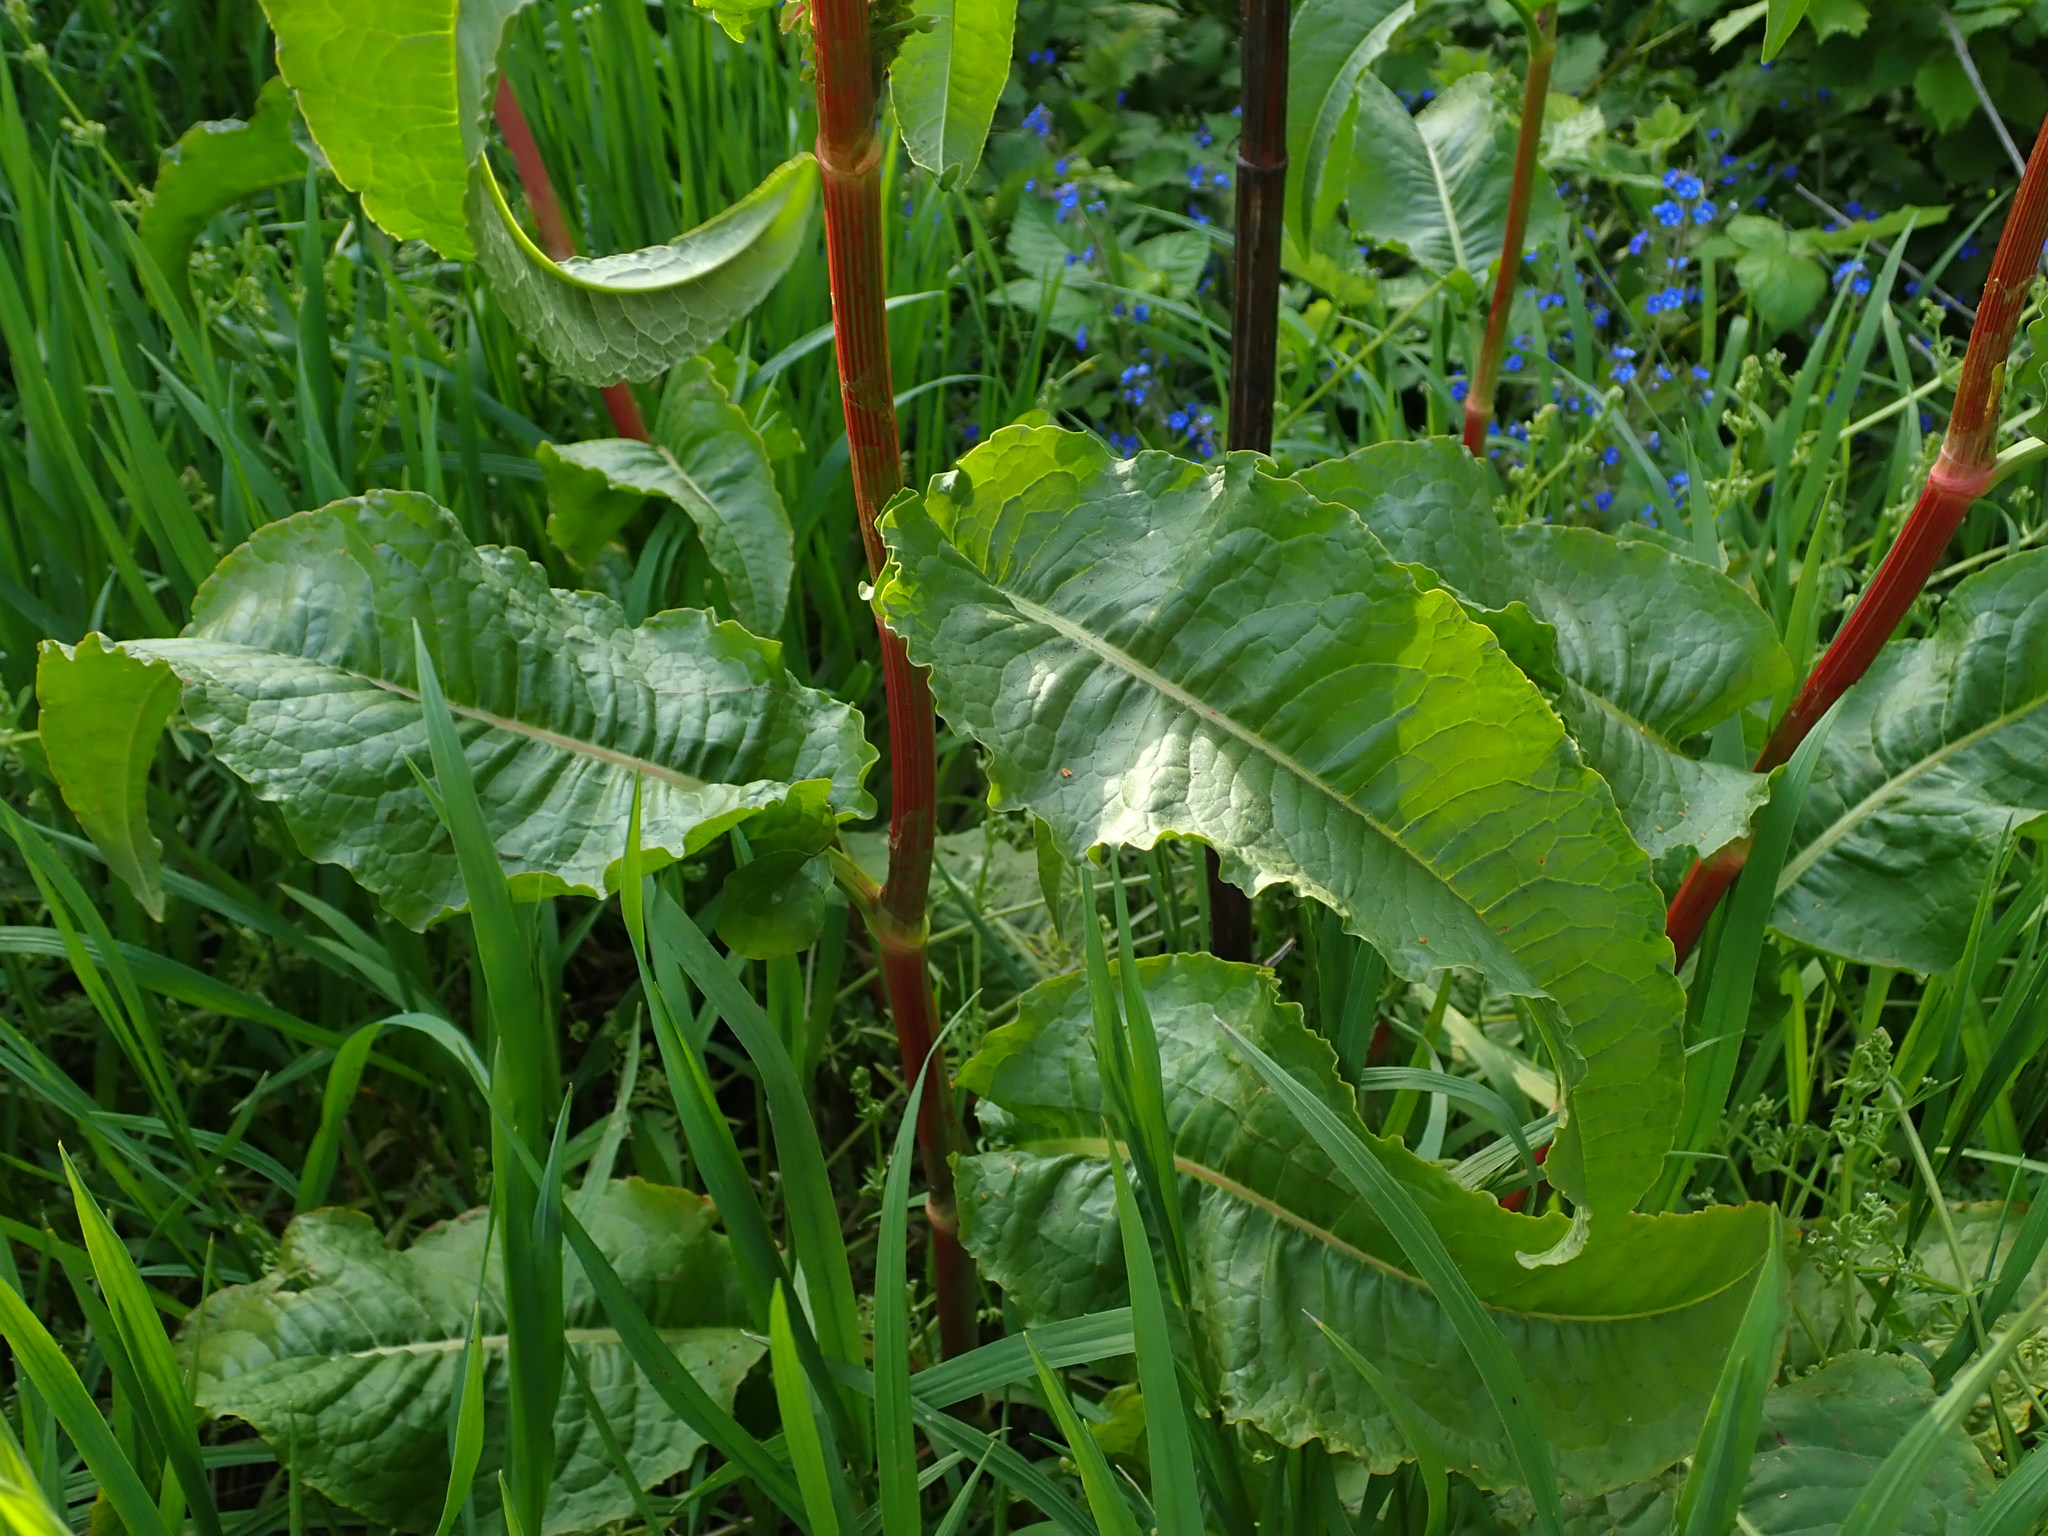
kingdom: Plantae
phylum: Tracheophyta
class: Magnoliopsida
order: Caryophyllales
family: Polygonaceae
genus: Rumex
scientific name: Rumex cristatus
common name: Greek dock
